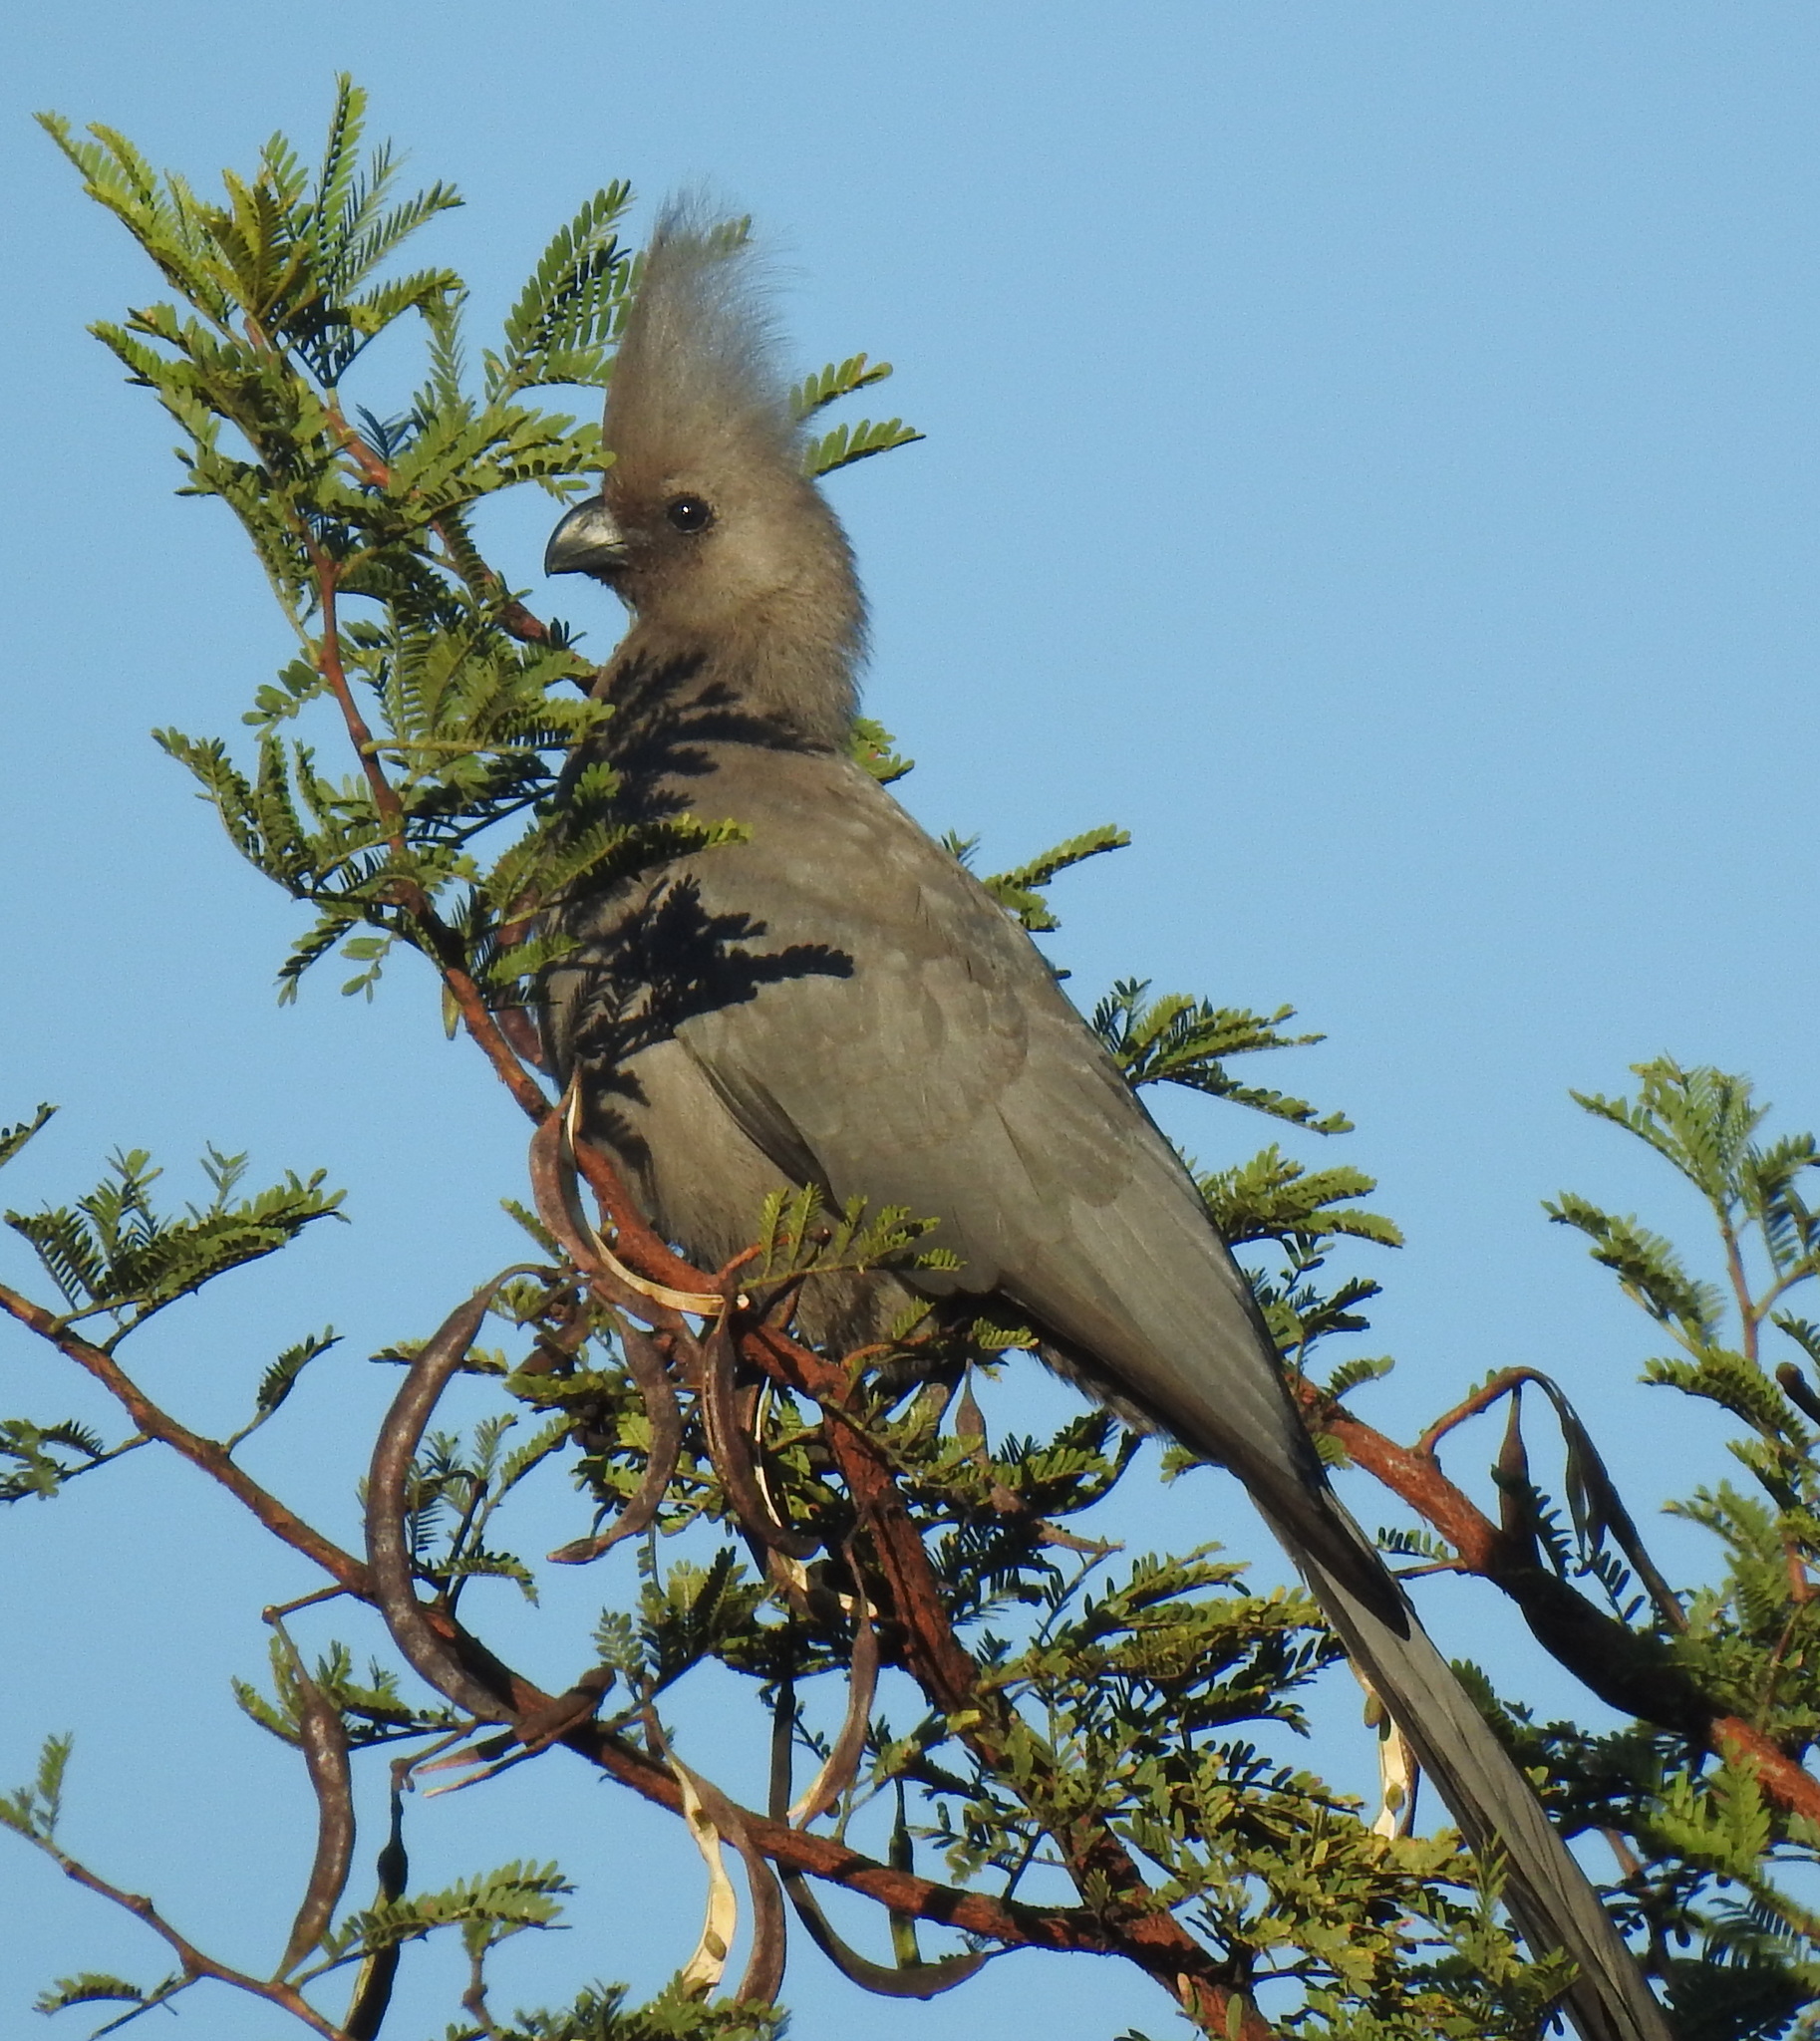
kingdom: Animalia
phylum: Chordata
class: Aves
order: Musophagiformes
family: Musophagidae
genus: Corythaixoides
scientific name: Corythaixoides concolor
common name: Grey go-away-bird
